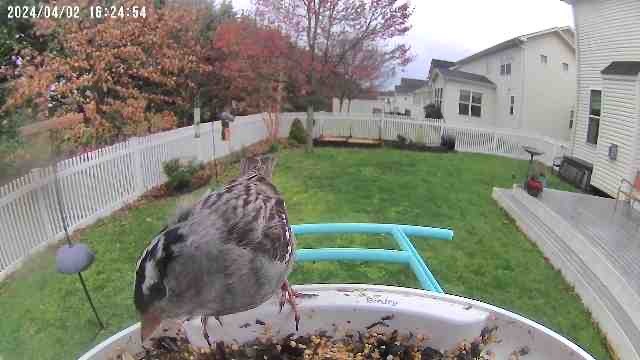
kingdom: Animalia
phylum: Chordata
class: Aves
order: Passeriformes
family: Passerellidae
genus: Zonotrichia
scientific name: Zonotrichia leucophrys
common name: White-crowned sparrow
